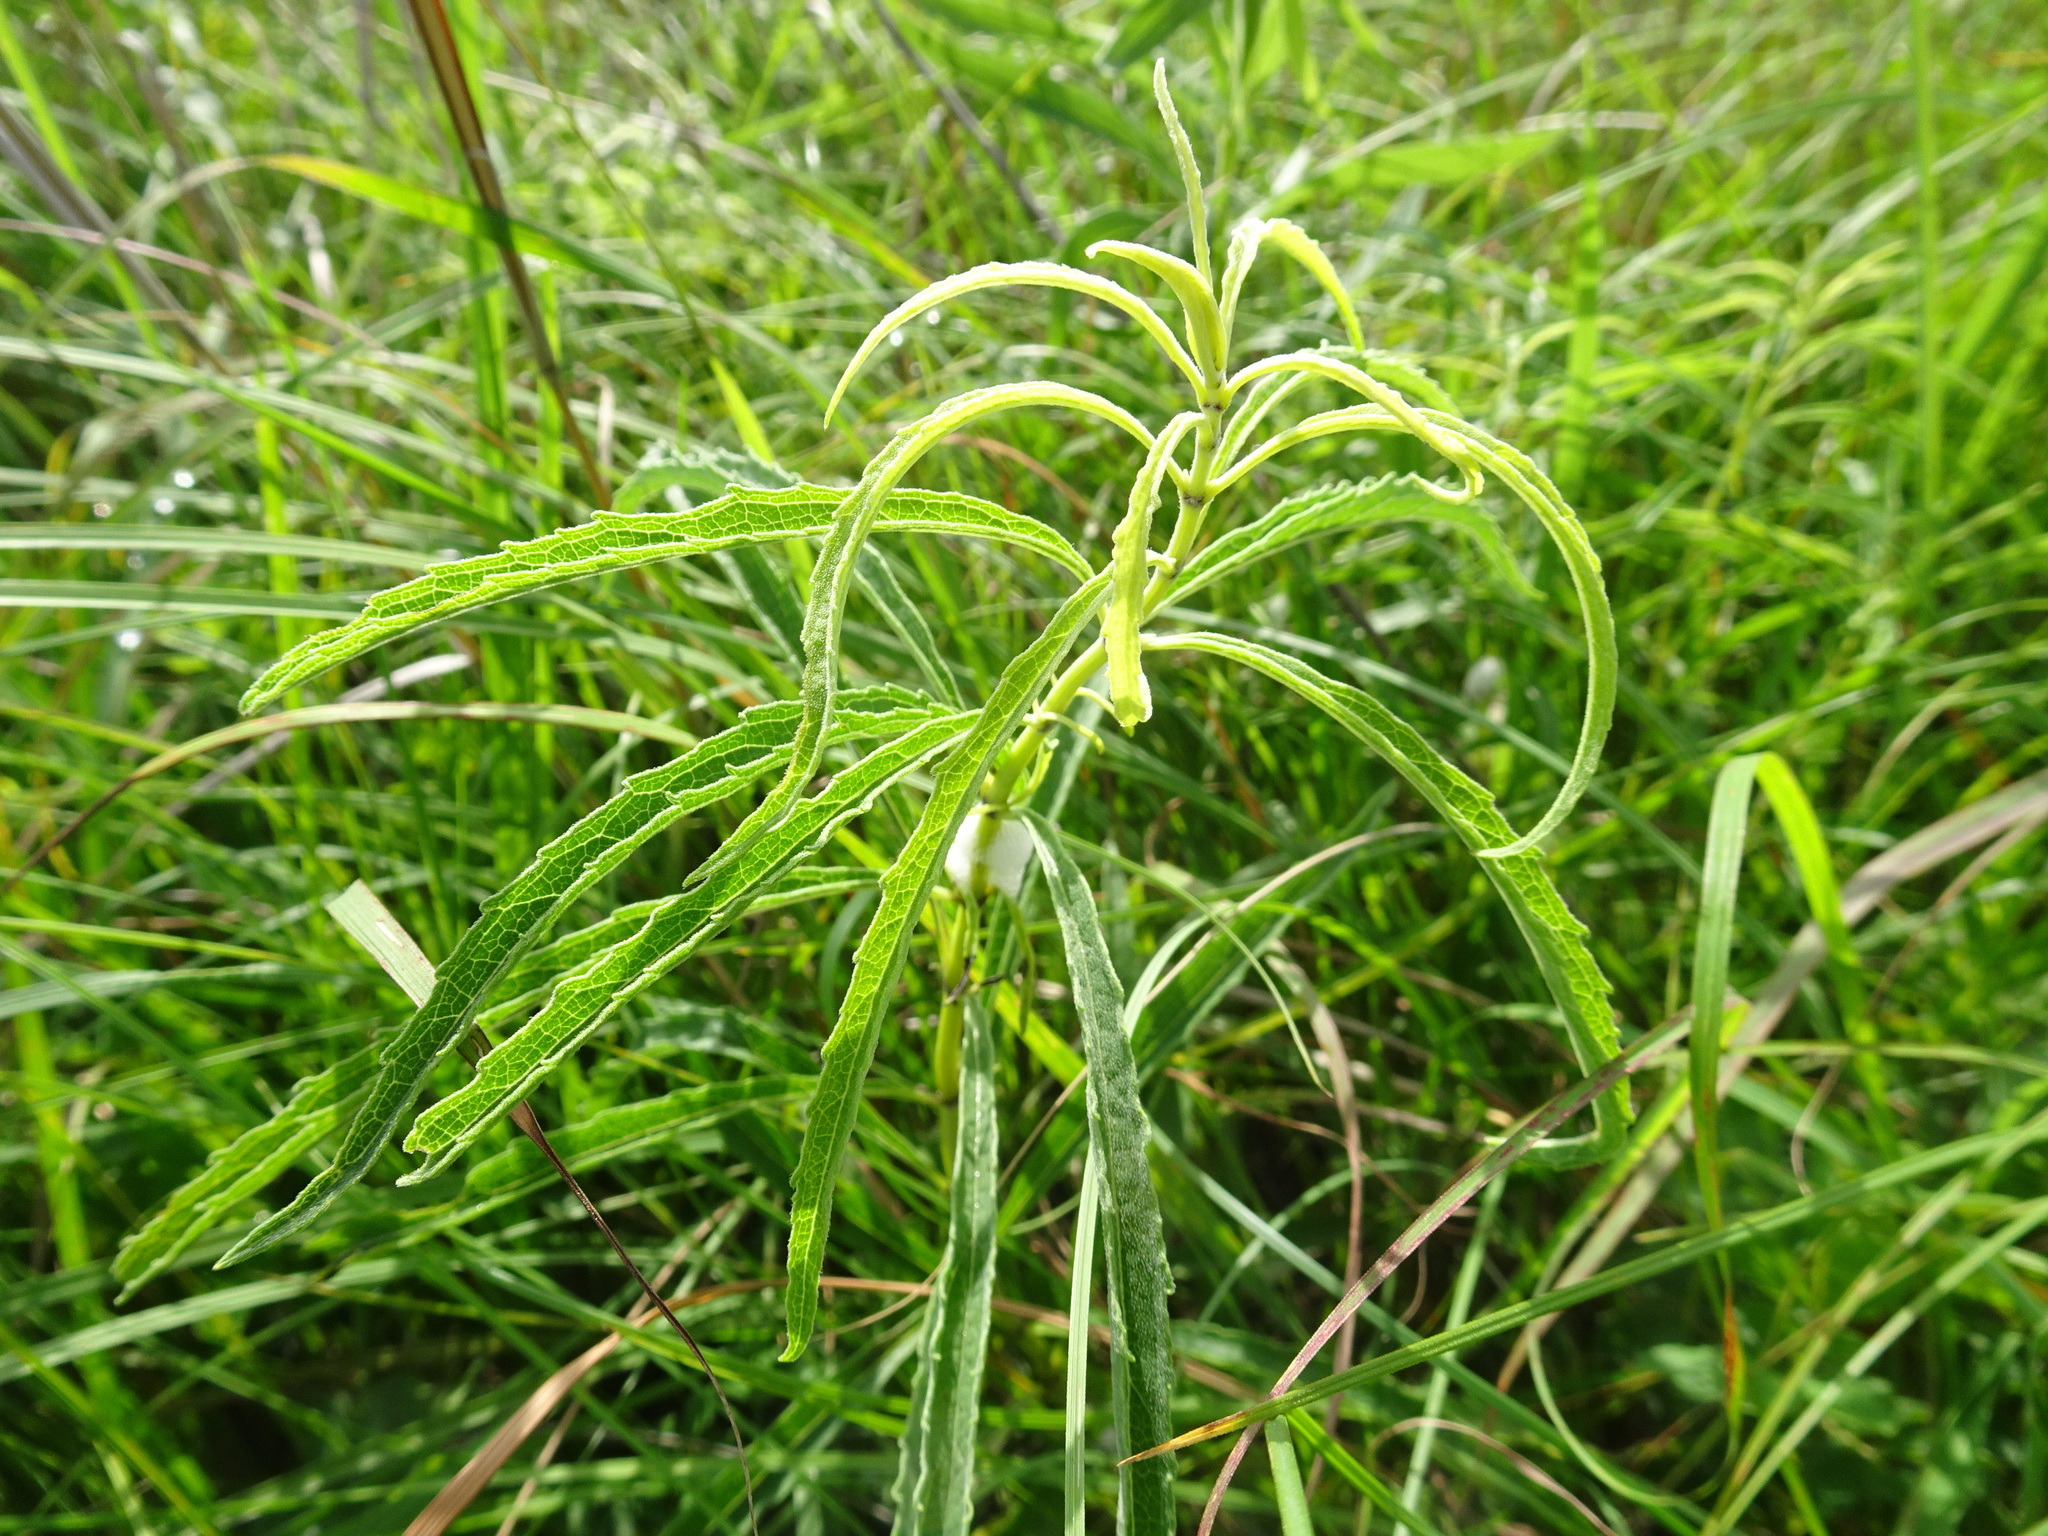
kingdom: Plantae
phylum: Tracheophyta
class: Magnoliopsida
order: Lamiales
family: Lamiaceae
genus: Salvia
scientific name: Salvia azurea
